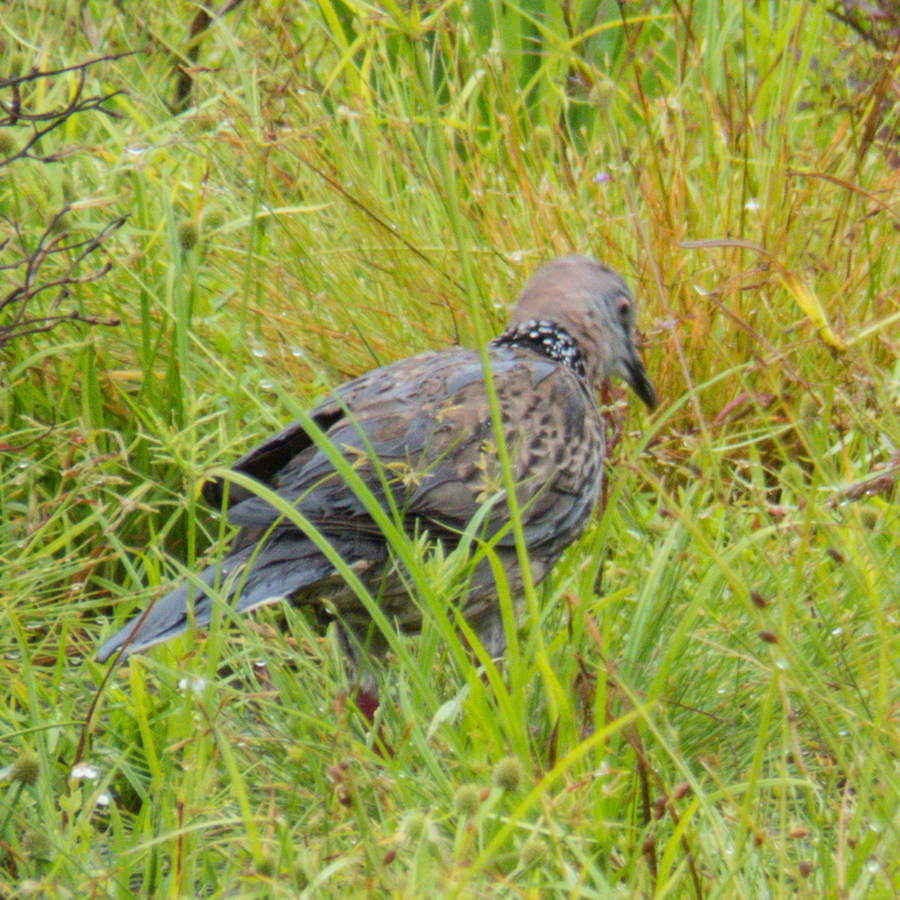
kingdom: Animalia
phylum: Chordata
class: Aves
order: Columbiformes
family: Columbidae
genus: Spilopelia
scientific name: Spilopelia chinensis
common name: Spotted dove
